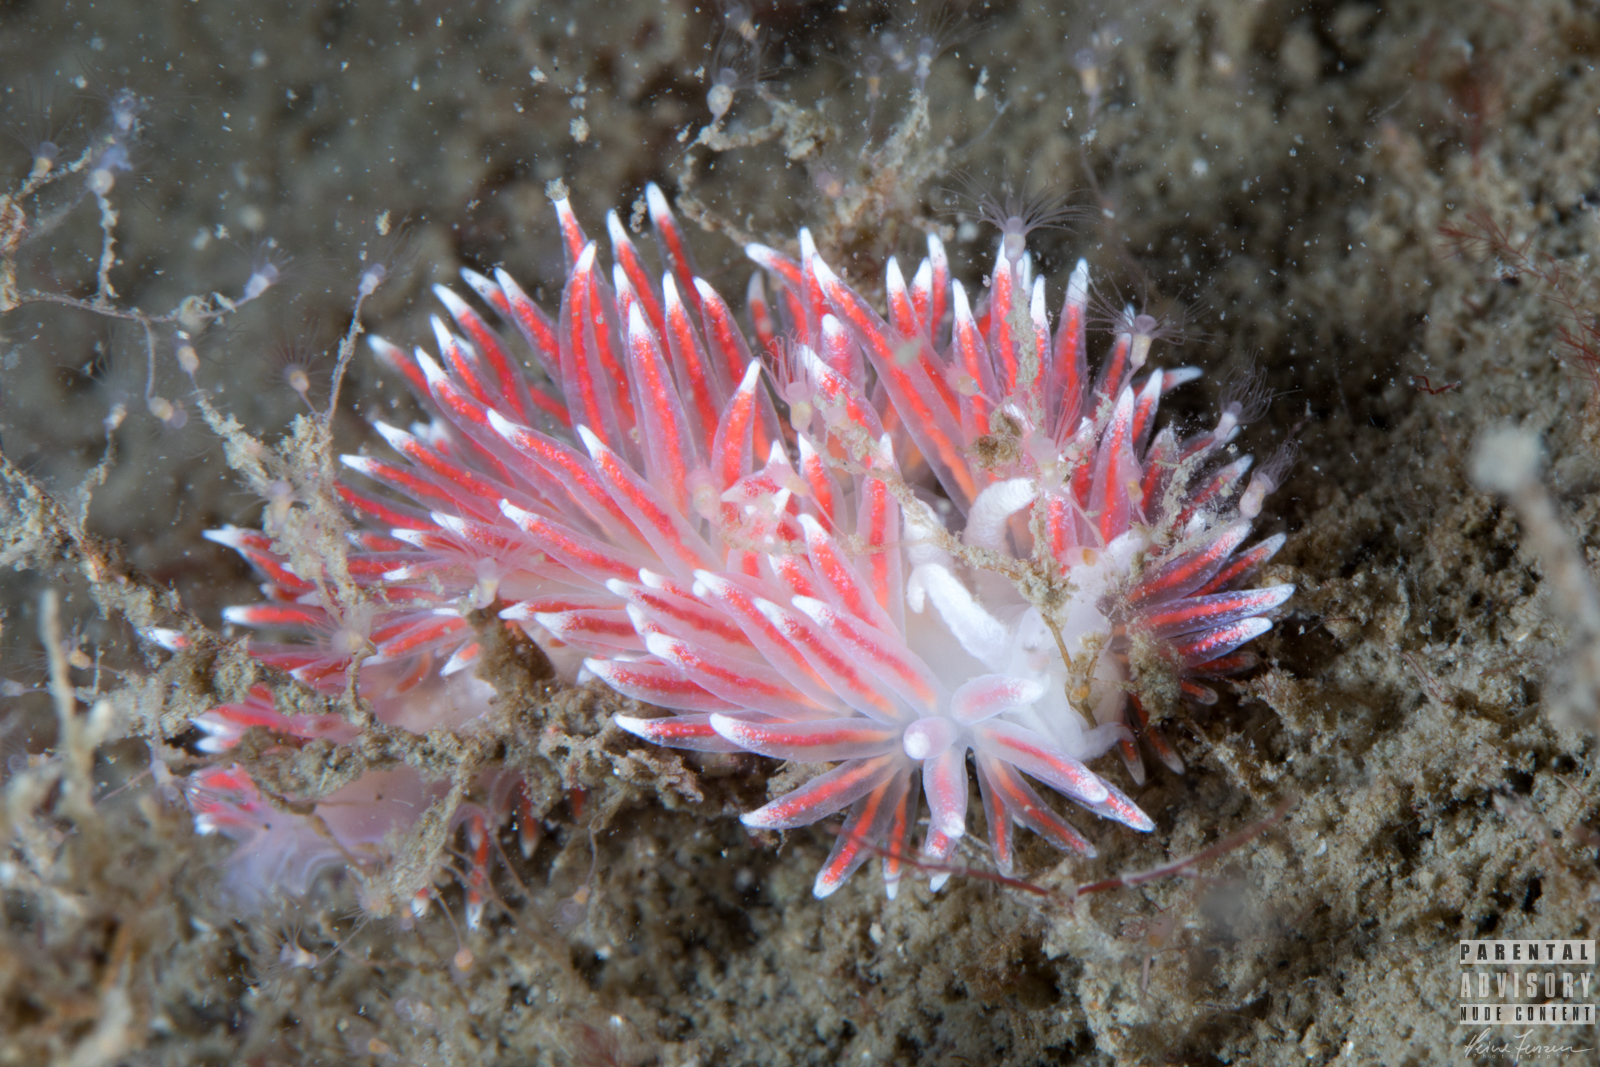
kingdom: Animalia
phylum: Mollusca
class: Gastropoda
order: Nudibranchia
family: Flabellinidae
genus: Carronella
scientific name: Carronella pellucida
